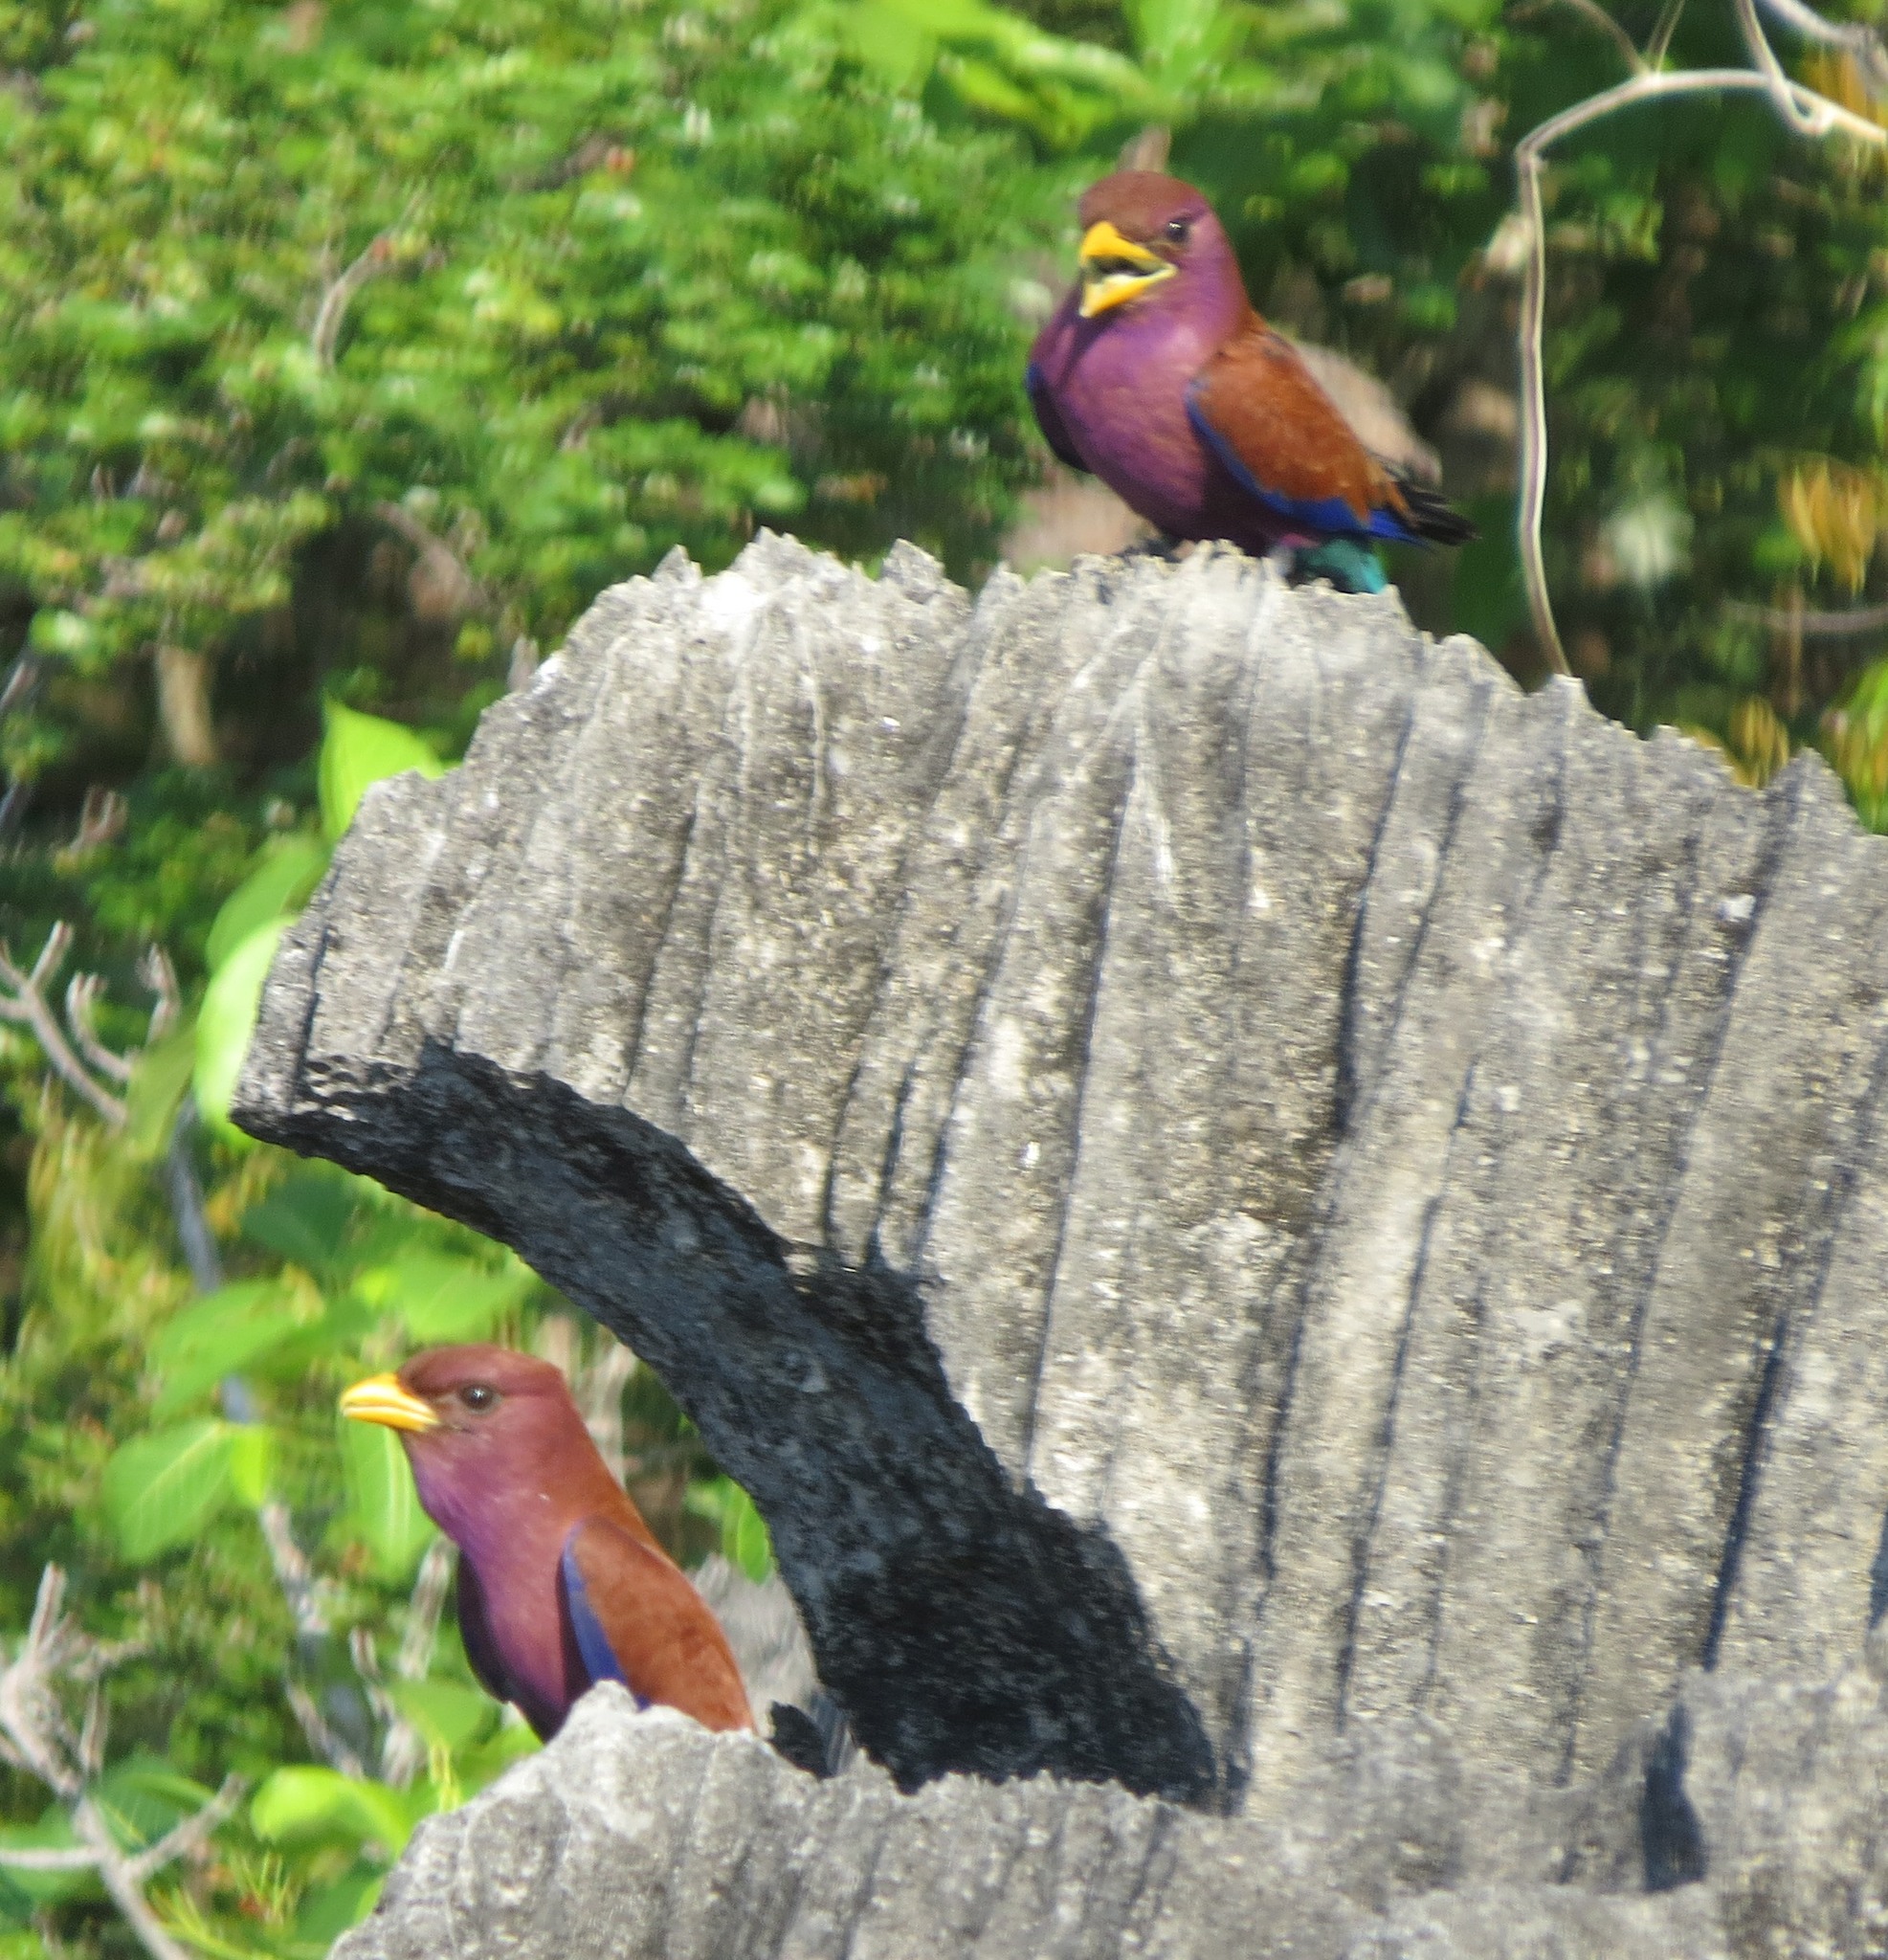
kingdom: Animalia
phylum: Chordata
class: Aves
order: Coraciiformes
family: Coraciidae
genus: Eurystomus
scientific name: Eurystomus glaucurus
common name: Broad-billed roller
